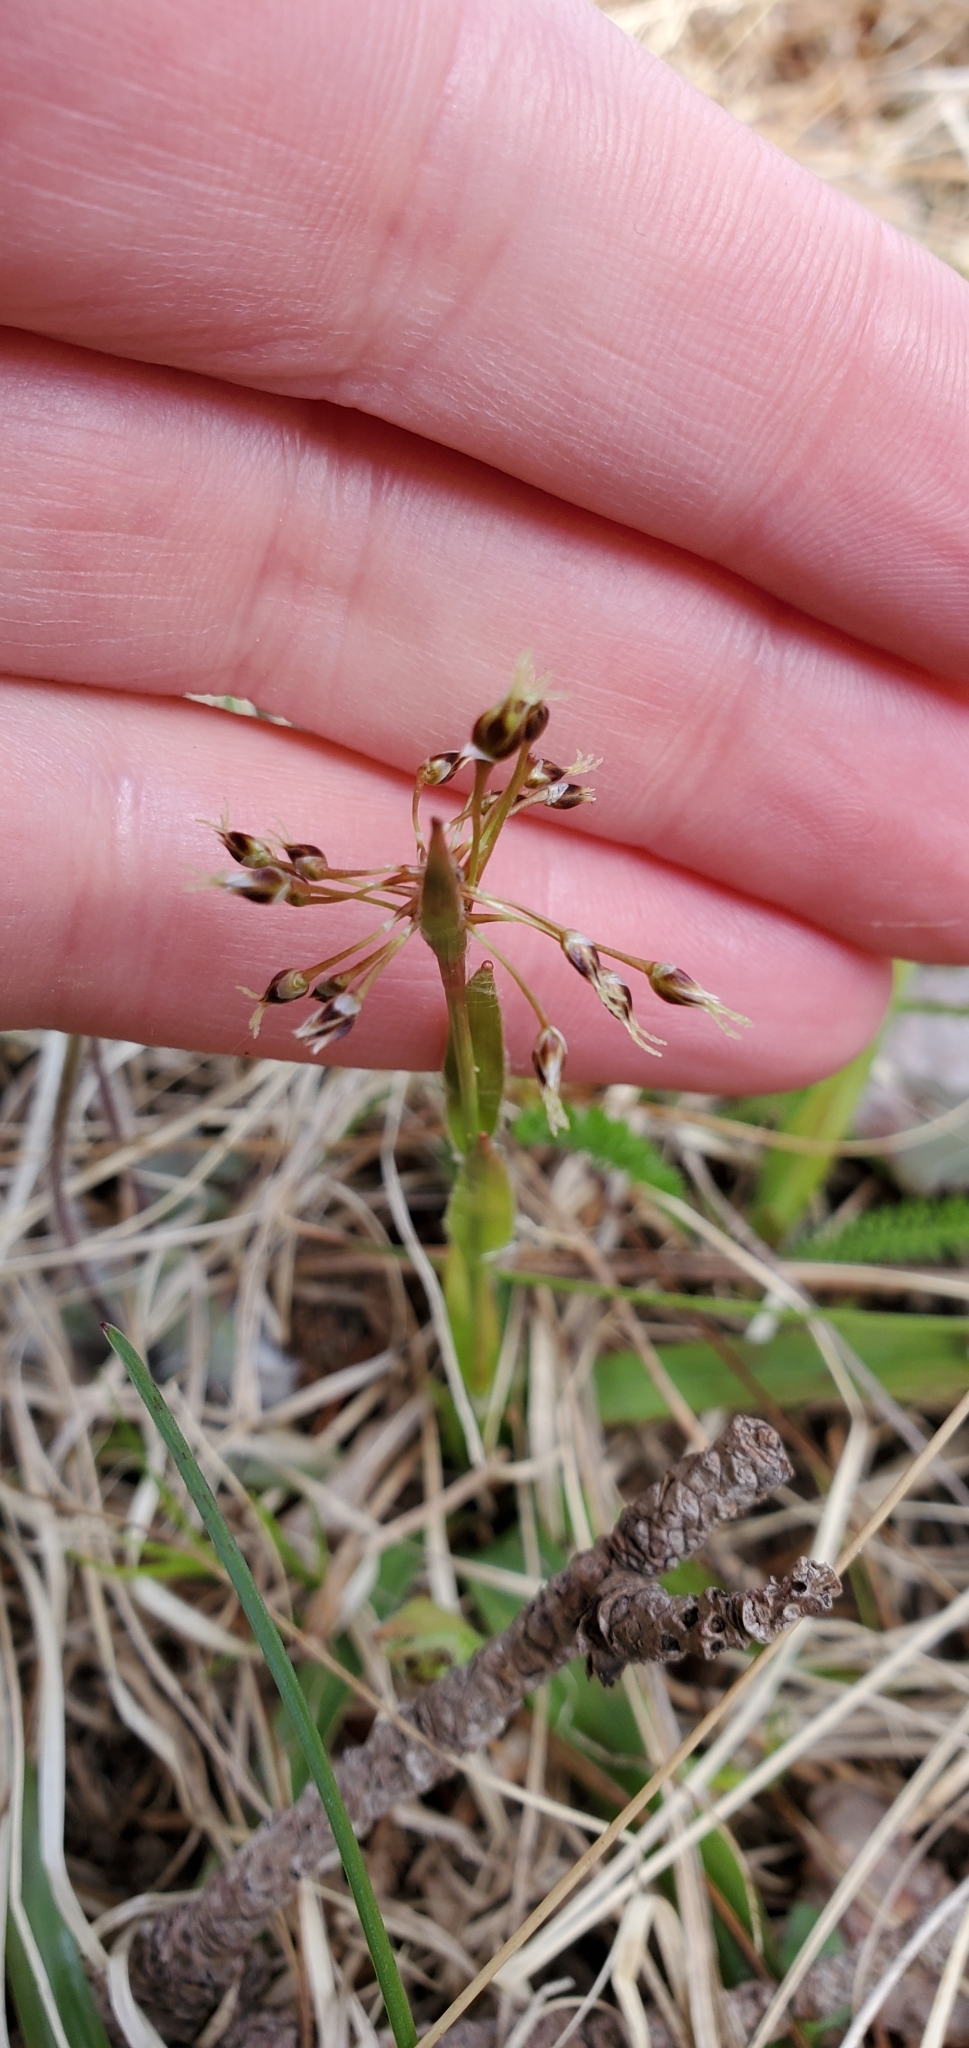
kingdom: Plantae
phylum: Tracheophyta
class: Liliopsida
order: Poales
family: Juncaceae
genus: Luzula
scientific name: Luzula acuminata
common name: Hairy woodrush
